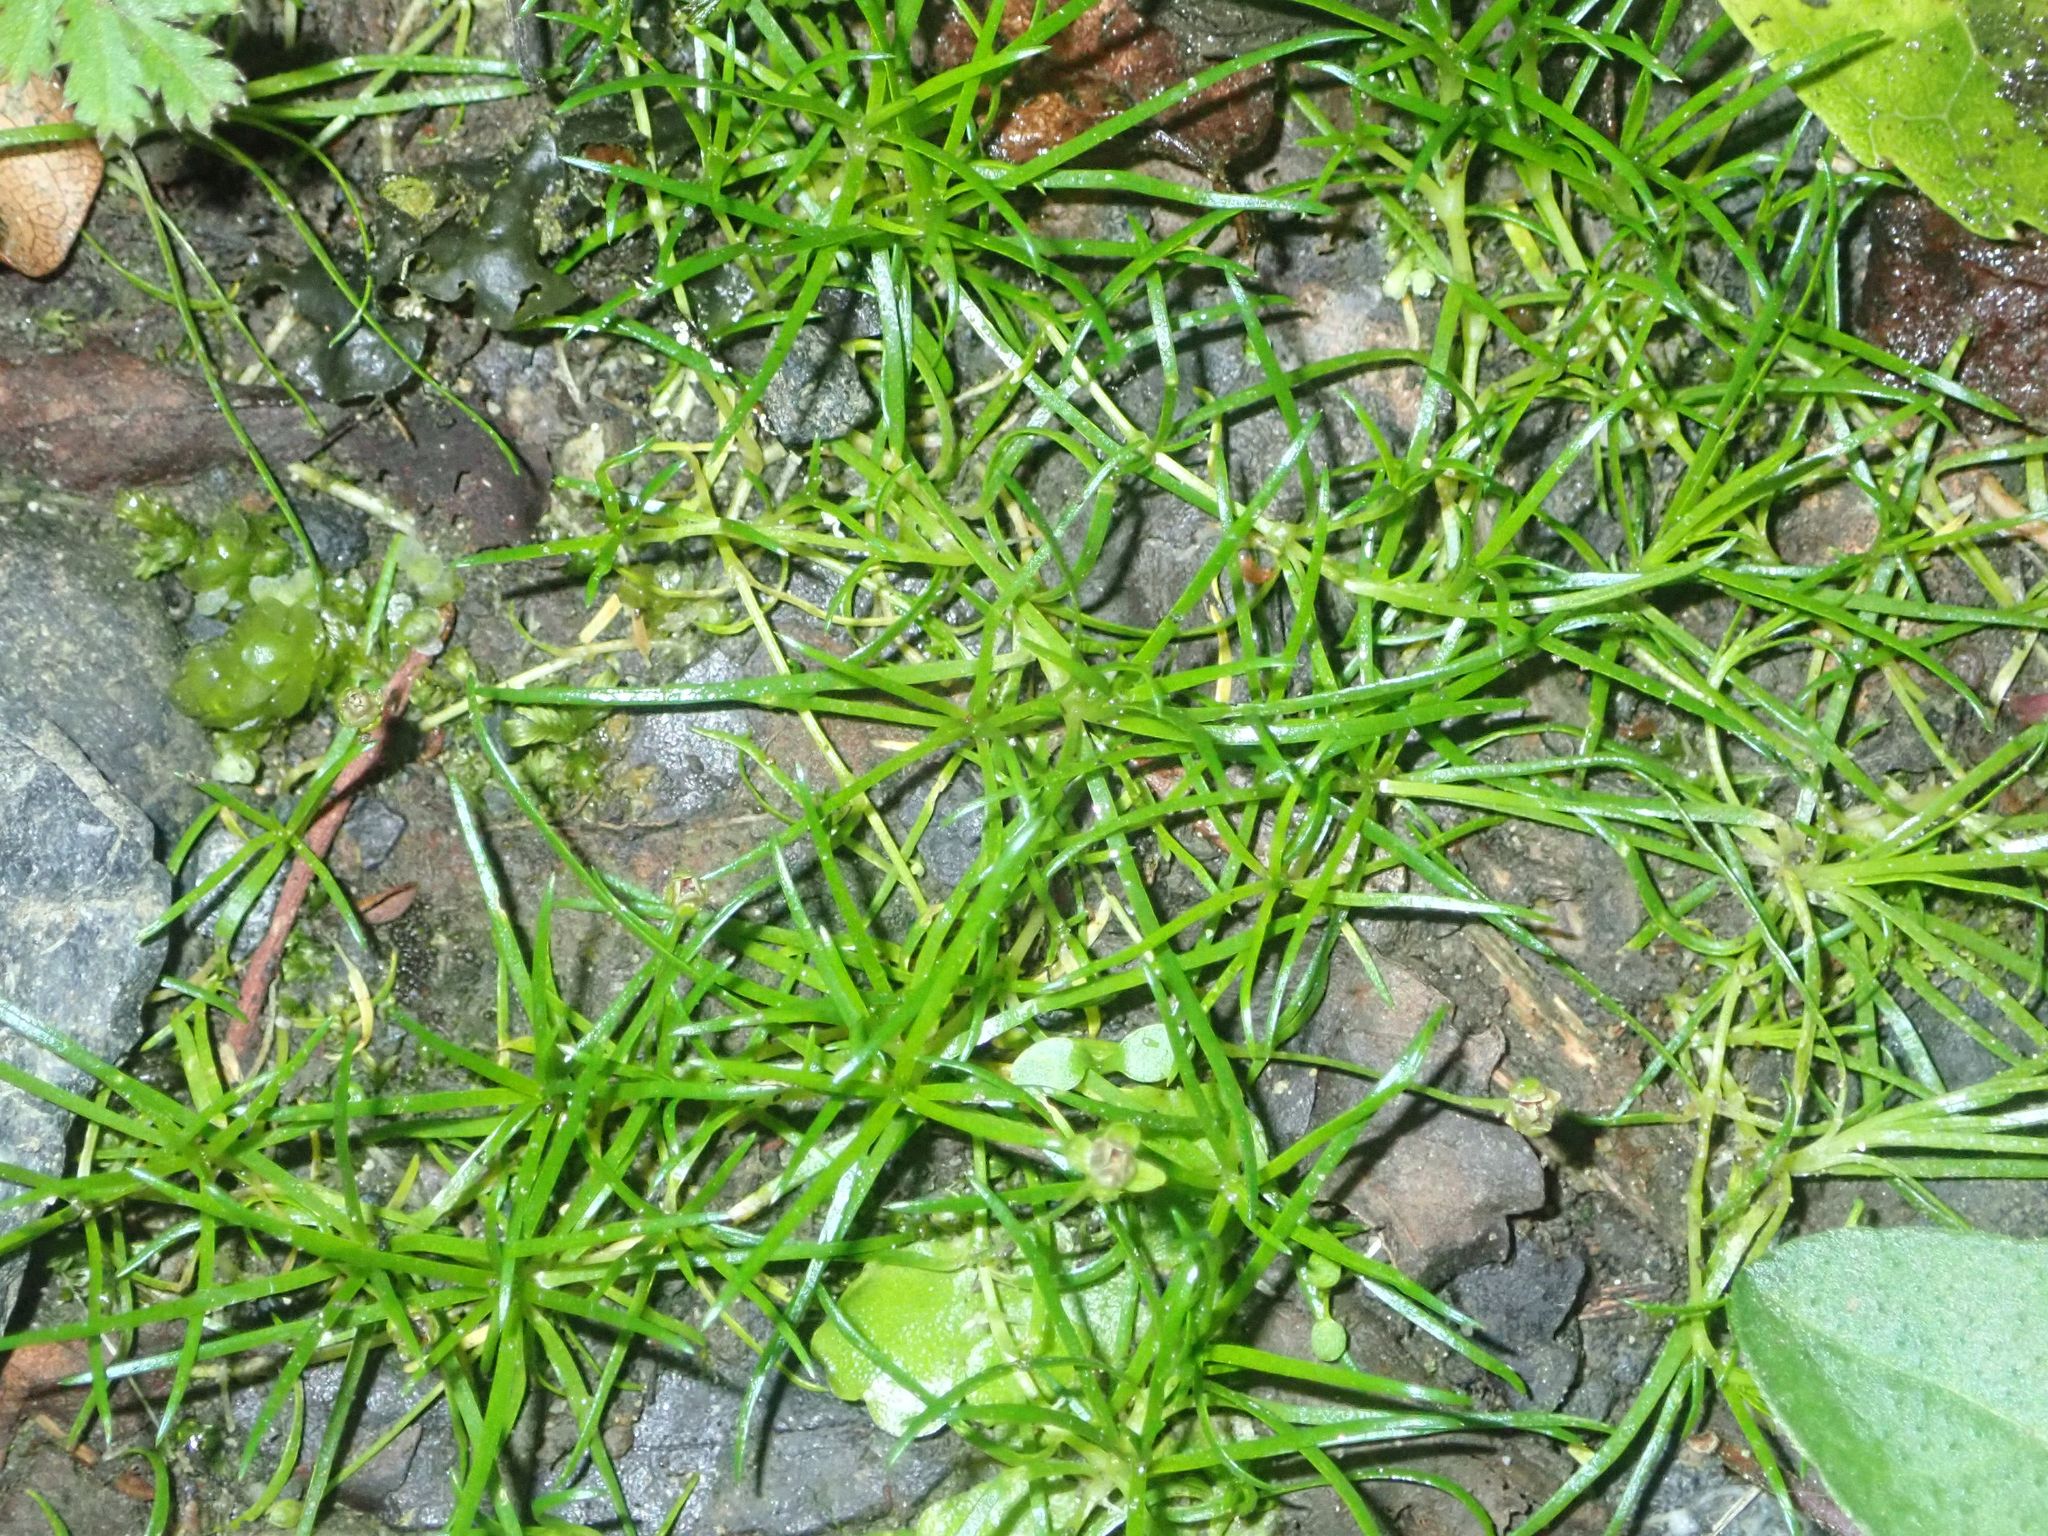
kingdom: Plantae
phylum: Tracheophyta
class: Magnoliopsida
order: Caryophyllales
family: Caryophyllaceae
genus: Sagina
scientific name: Sagina procumbens
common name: Procumbent pearlwort
